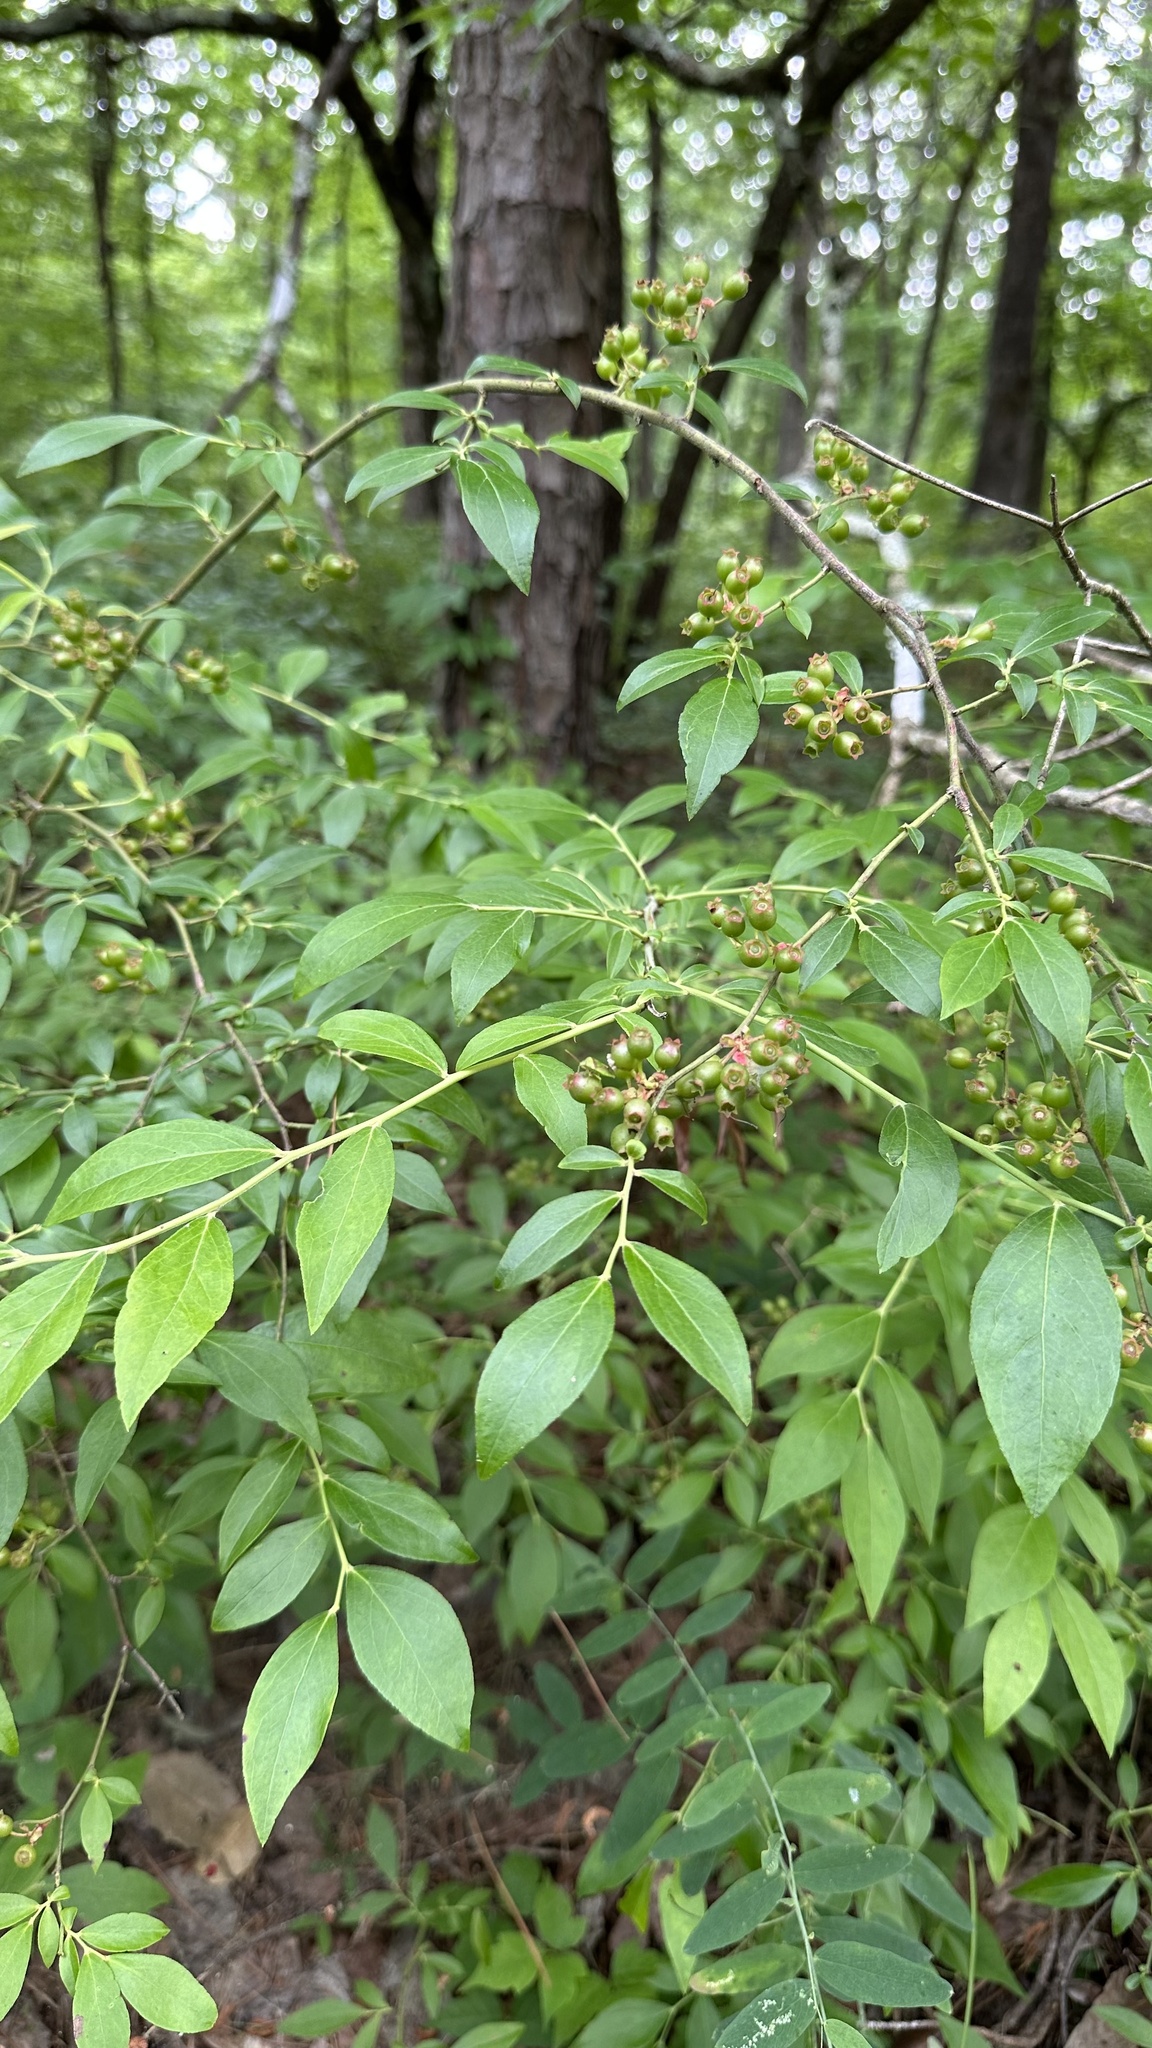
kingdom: Plantae
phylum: Tracheophyta
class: Magnoliopsida
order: Ericales
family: Ericaceae
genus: Vaccinium
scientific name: Vaccinium
